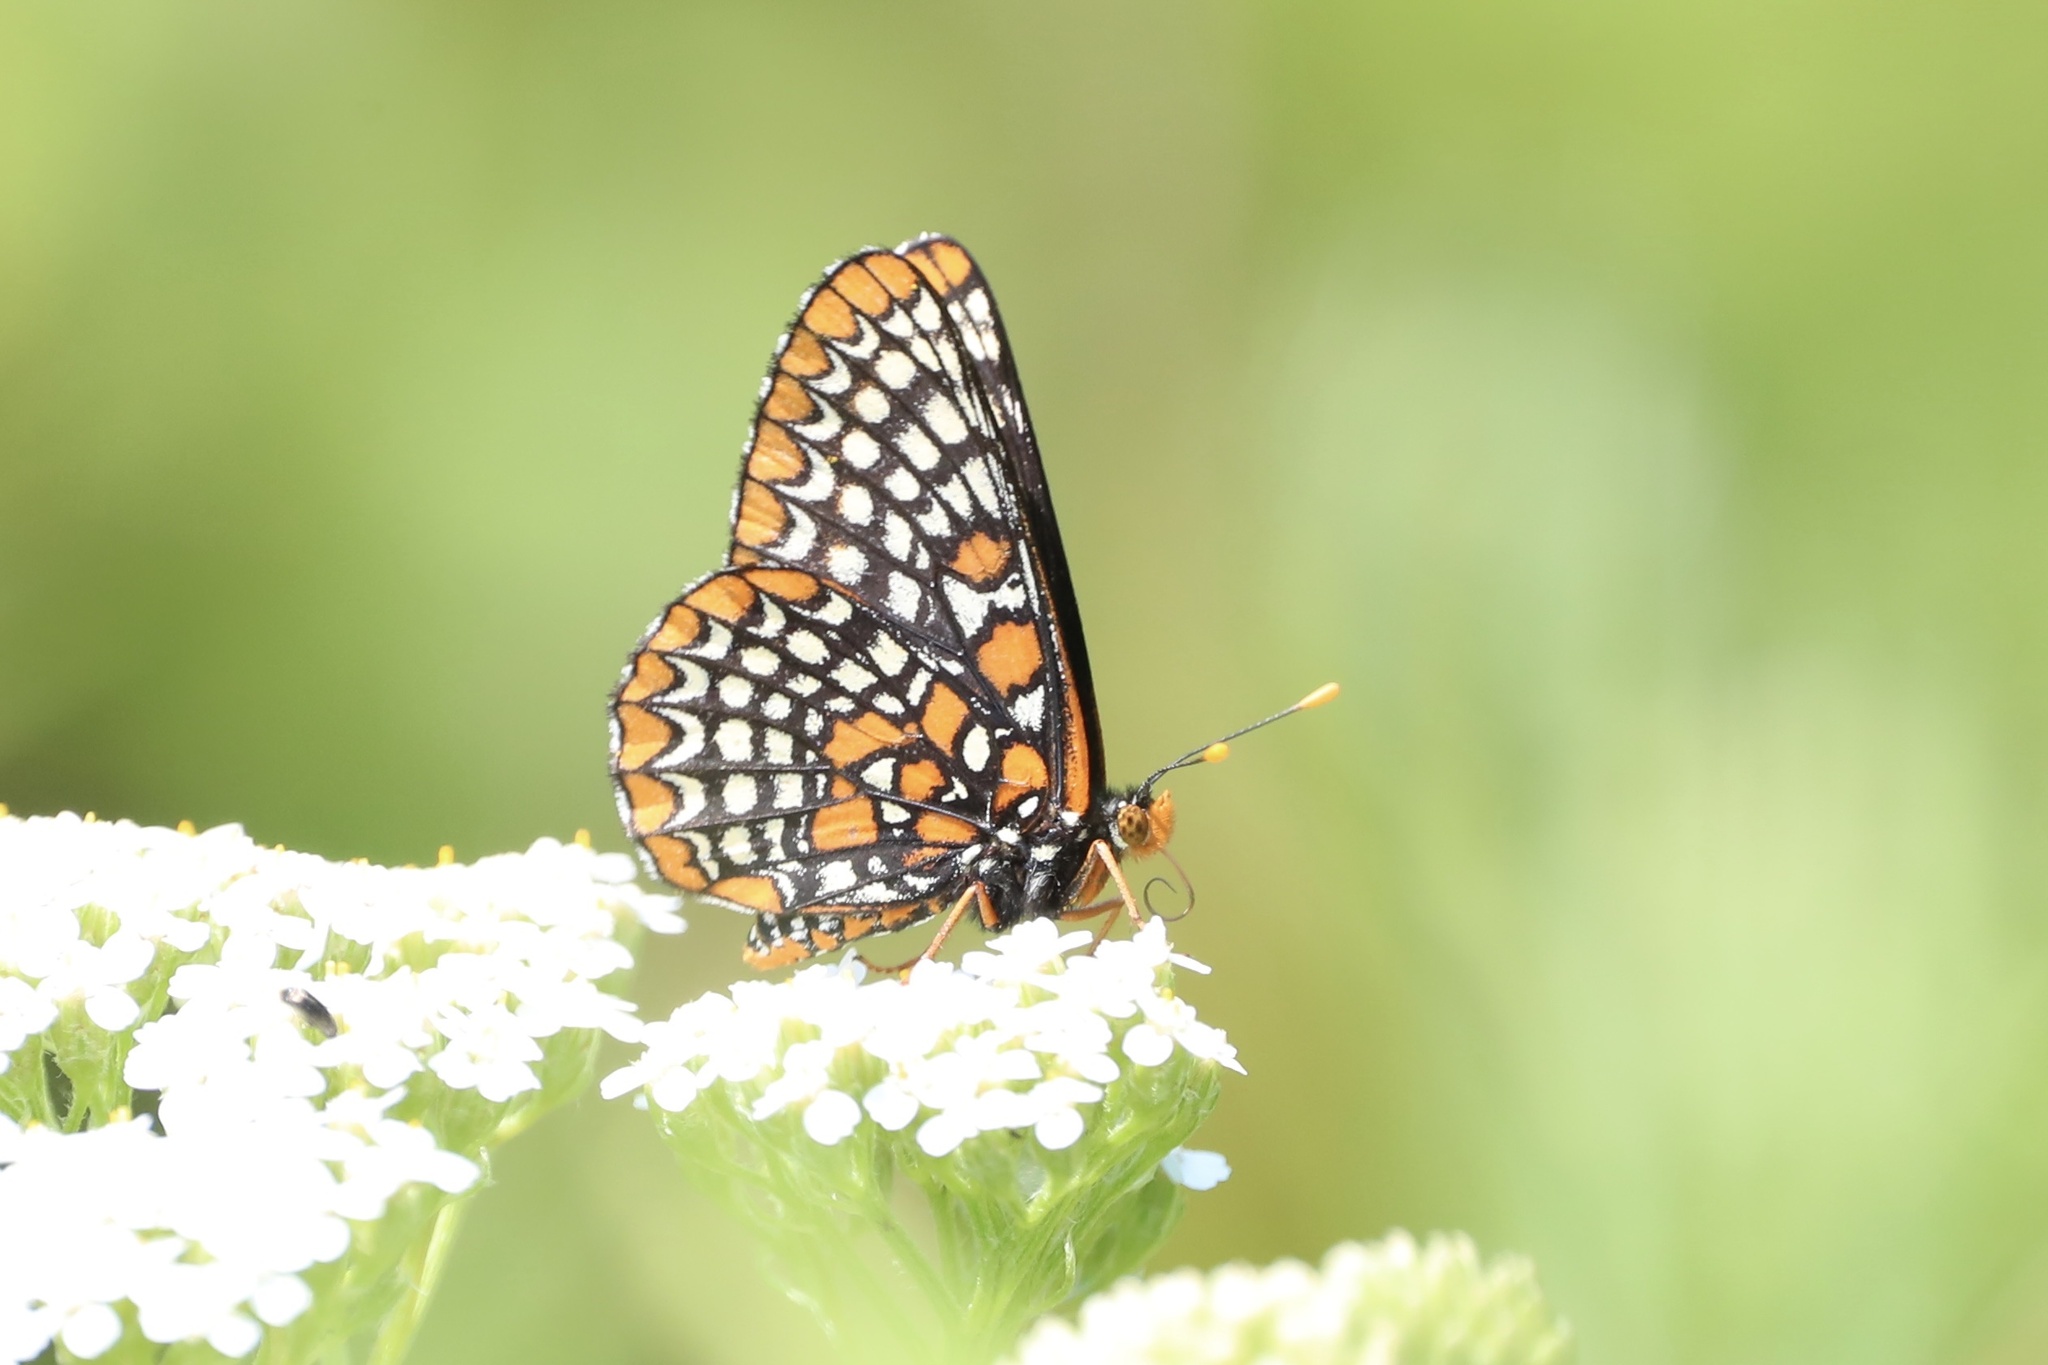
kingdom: Animalia
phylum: Arthropoda
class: Insecta
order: Lepidoptera
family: Nymphalidae
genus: Euphydryas
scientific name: Euphydryas phaeton
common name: Baltimore checkerspot
